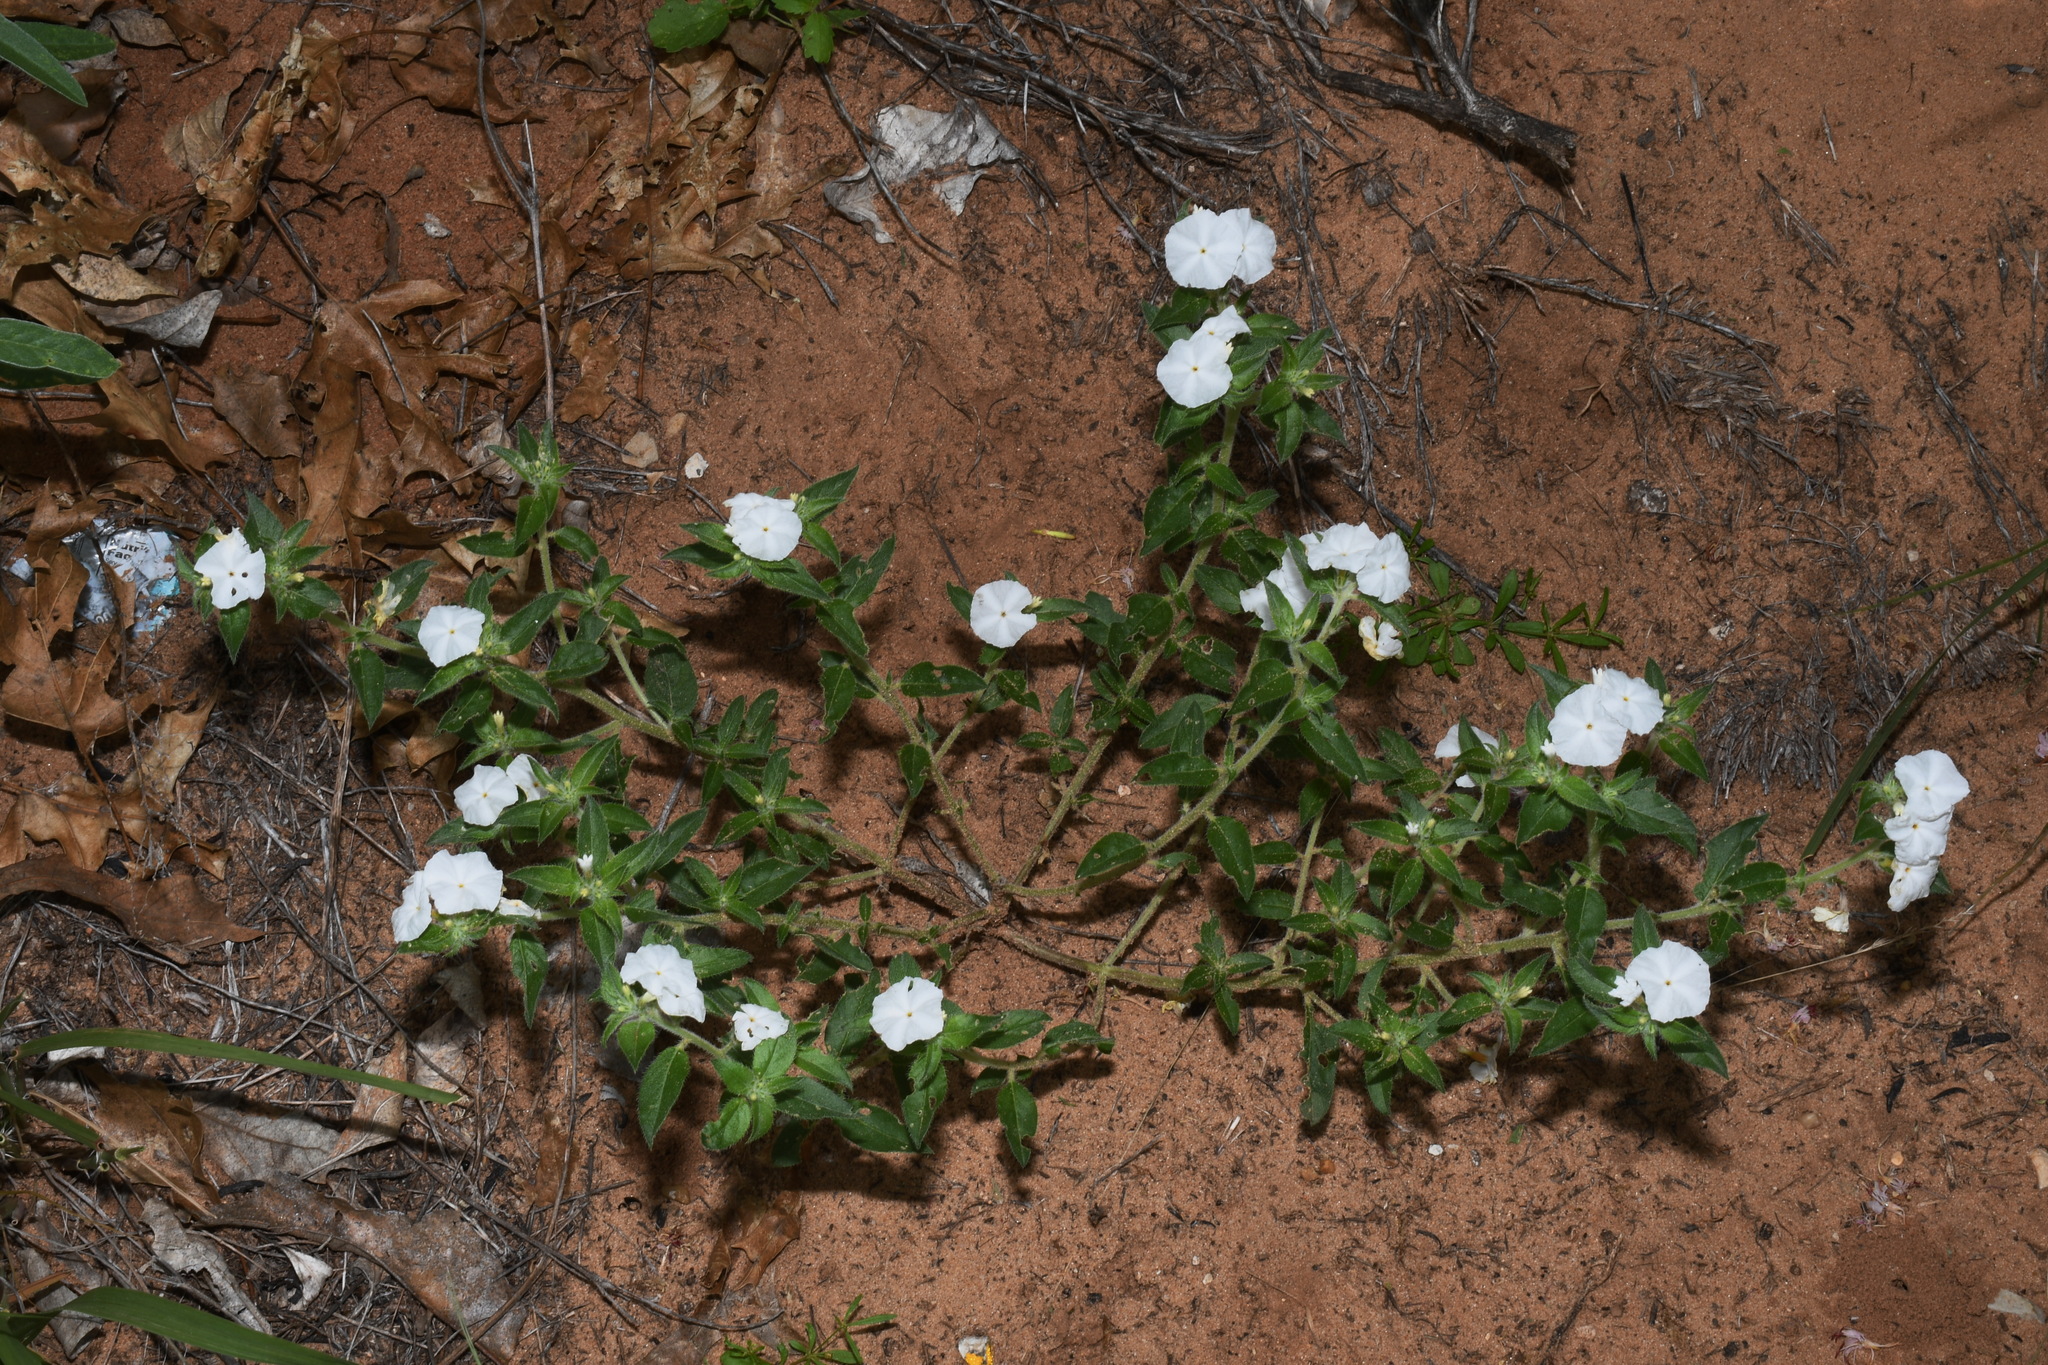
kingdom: Plantae
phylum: Tracheophyta
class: Magnoliopsida
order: Boraginales
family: Heliotropiaceae
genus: Euploca
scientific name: Euploca convolvulacea
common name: Bindweed heliotrope
